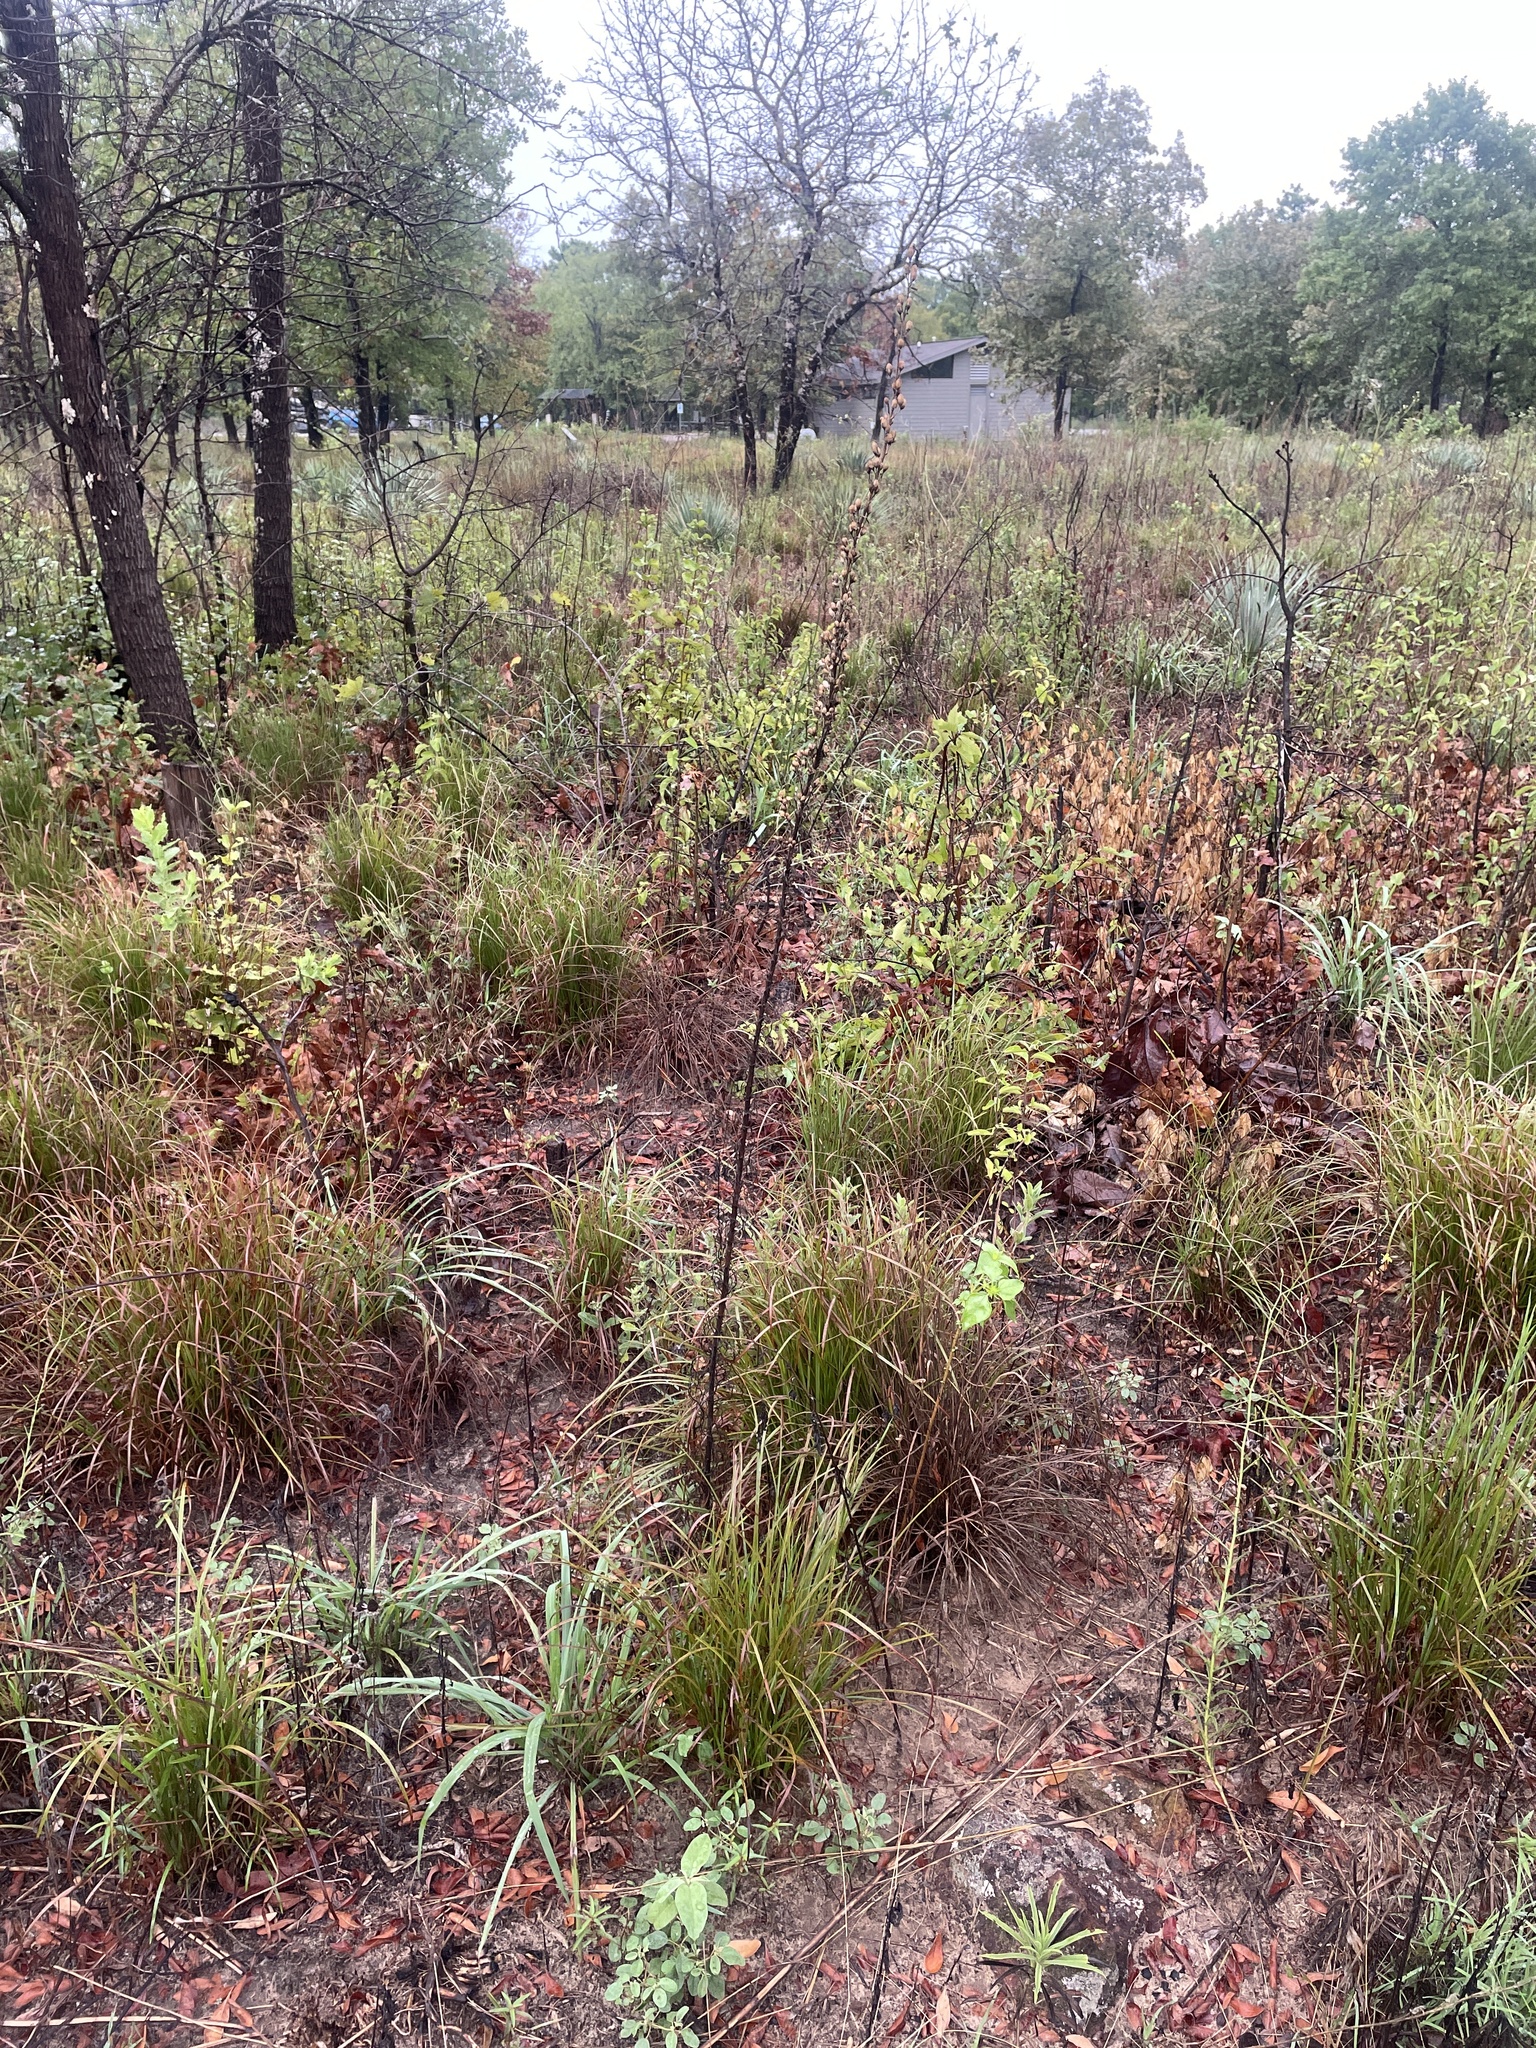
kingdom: Plantae
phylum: Tracheophyta
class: Magnoliopsida
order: Ericales
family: Polemoniaceae
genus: Ipomopsis
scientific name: Ipomopsis rubra
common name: Skyrocket
